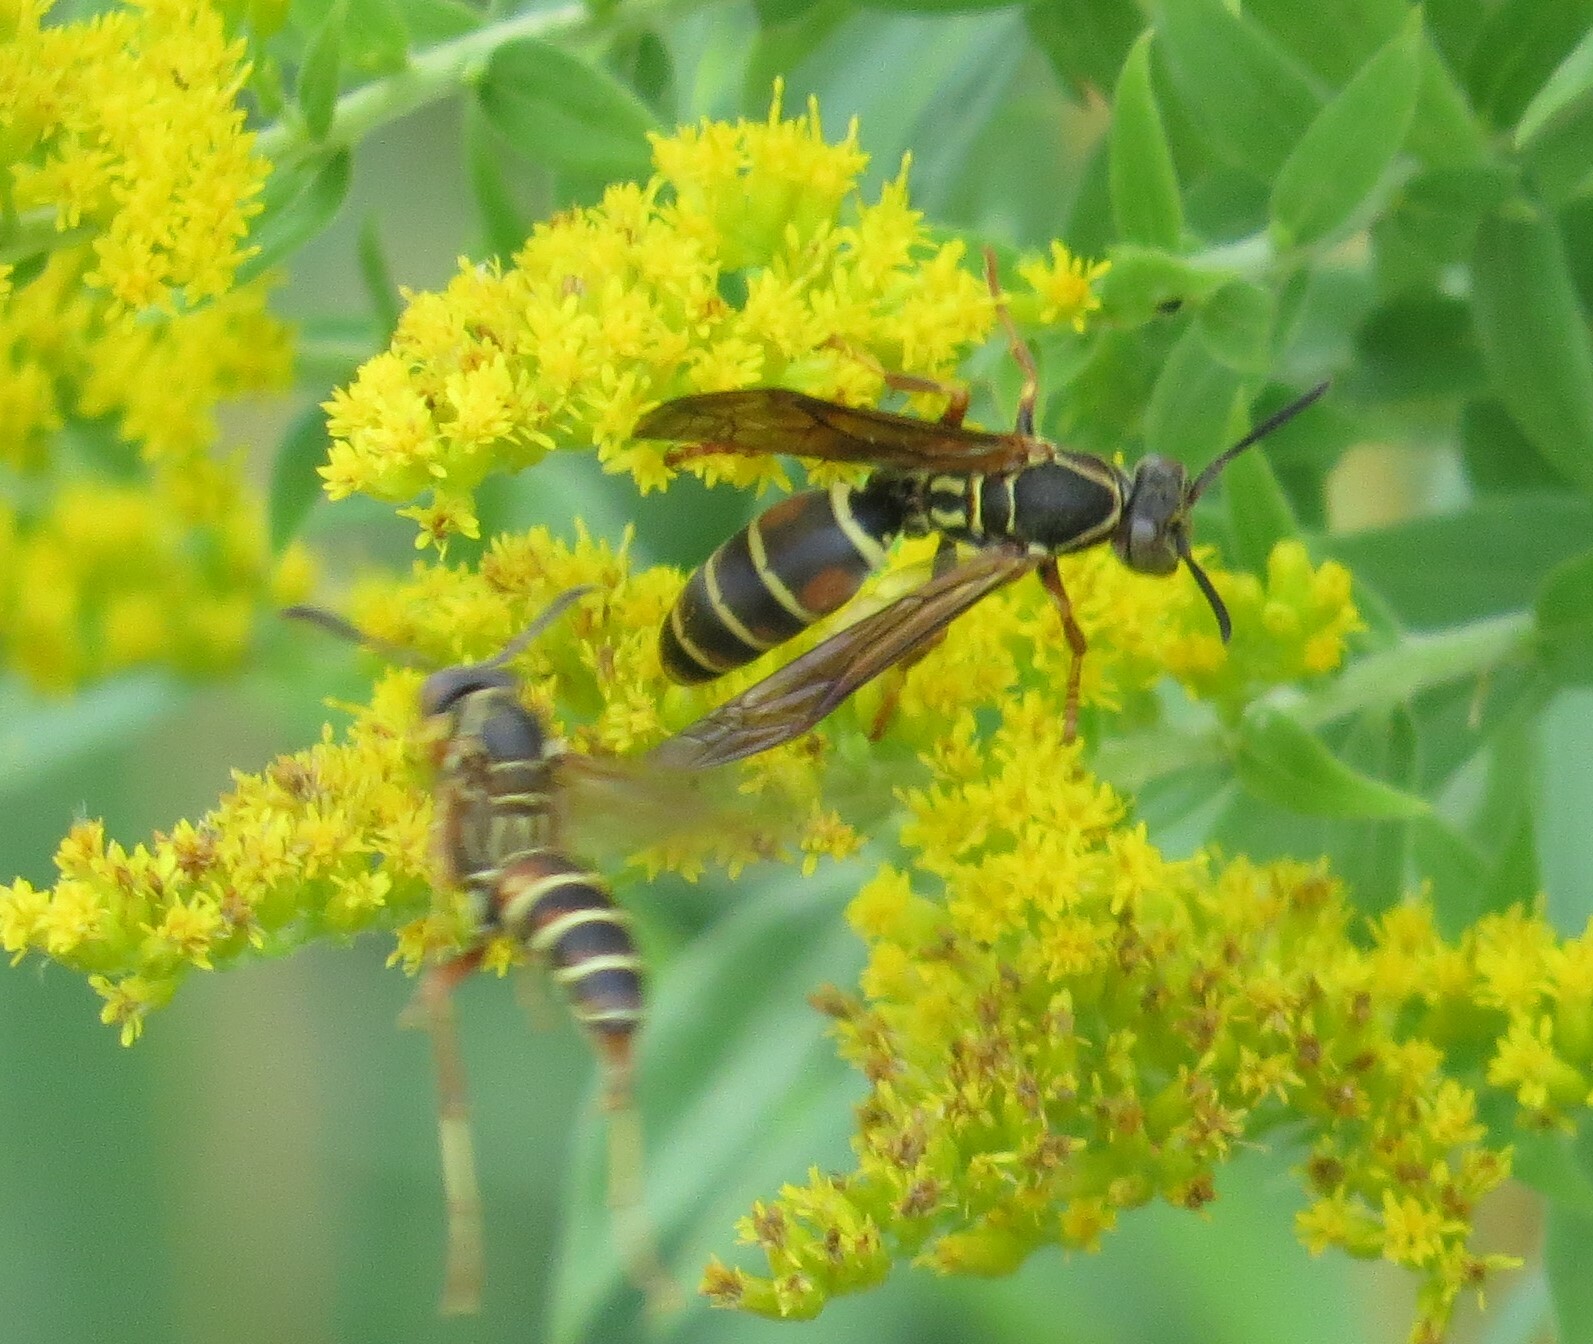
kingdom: Animalia
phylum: Arthropoda
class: Insecta
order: Hymenoptera
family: Eumenidae
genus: Polistes
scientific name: Polistes fuscatus
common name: Dark paper wasp
